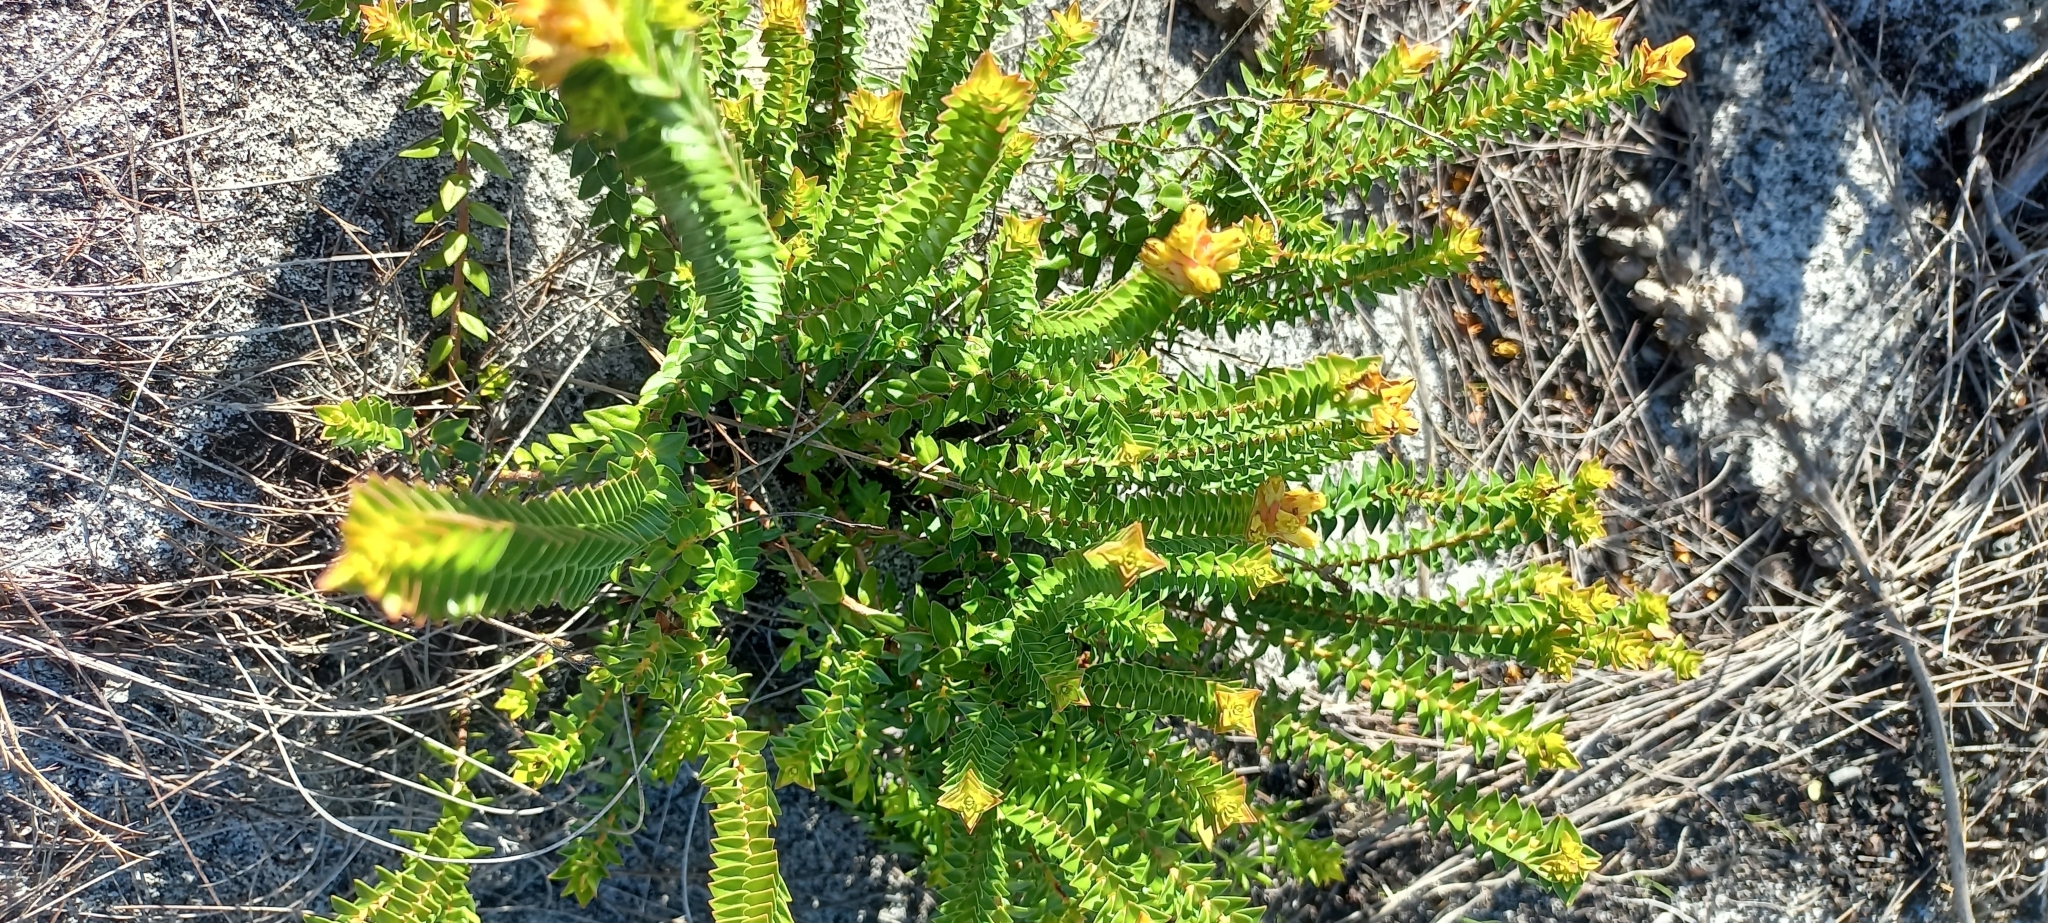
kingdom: Plantae
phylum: Tracheophyta
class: Magnoliopsida
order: Myrtales
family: Penaeaceae
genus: Penaea
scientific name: Penaea mucronata
